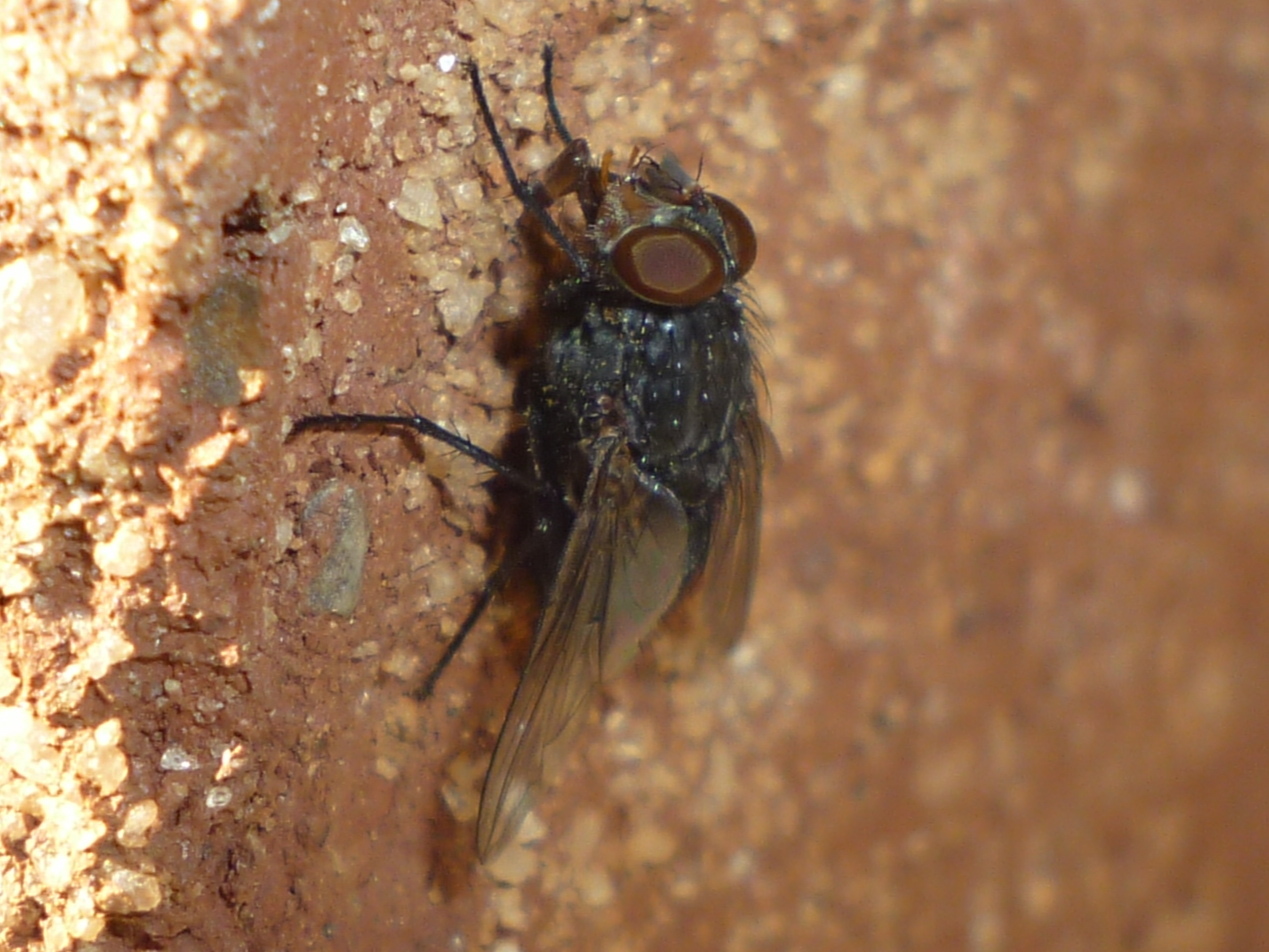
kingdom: Animalia
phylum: Arthropoda
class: Insecta
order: Diptera
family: Calliphoridae
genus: Calliphora
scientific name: Calliphora vicina
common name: Common blow flie
